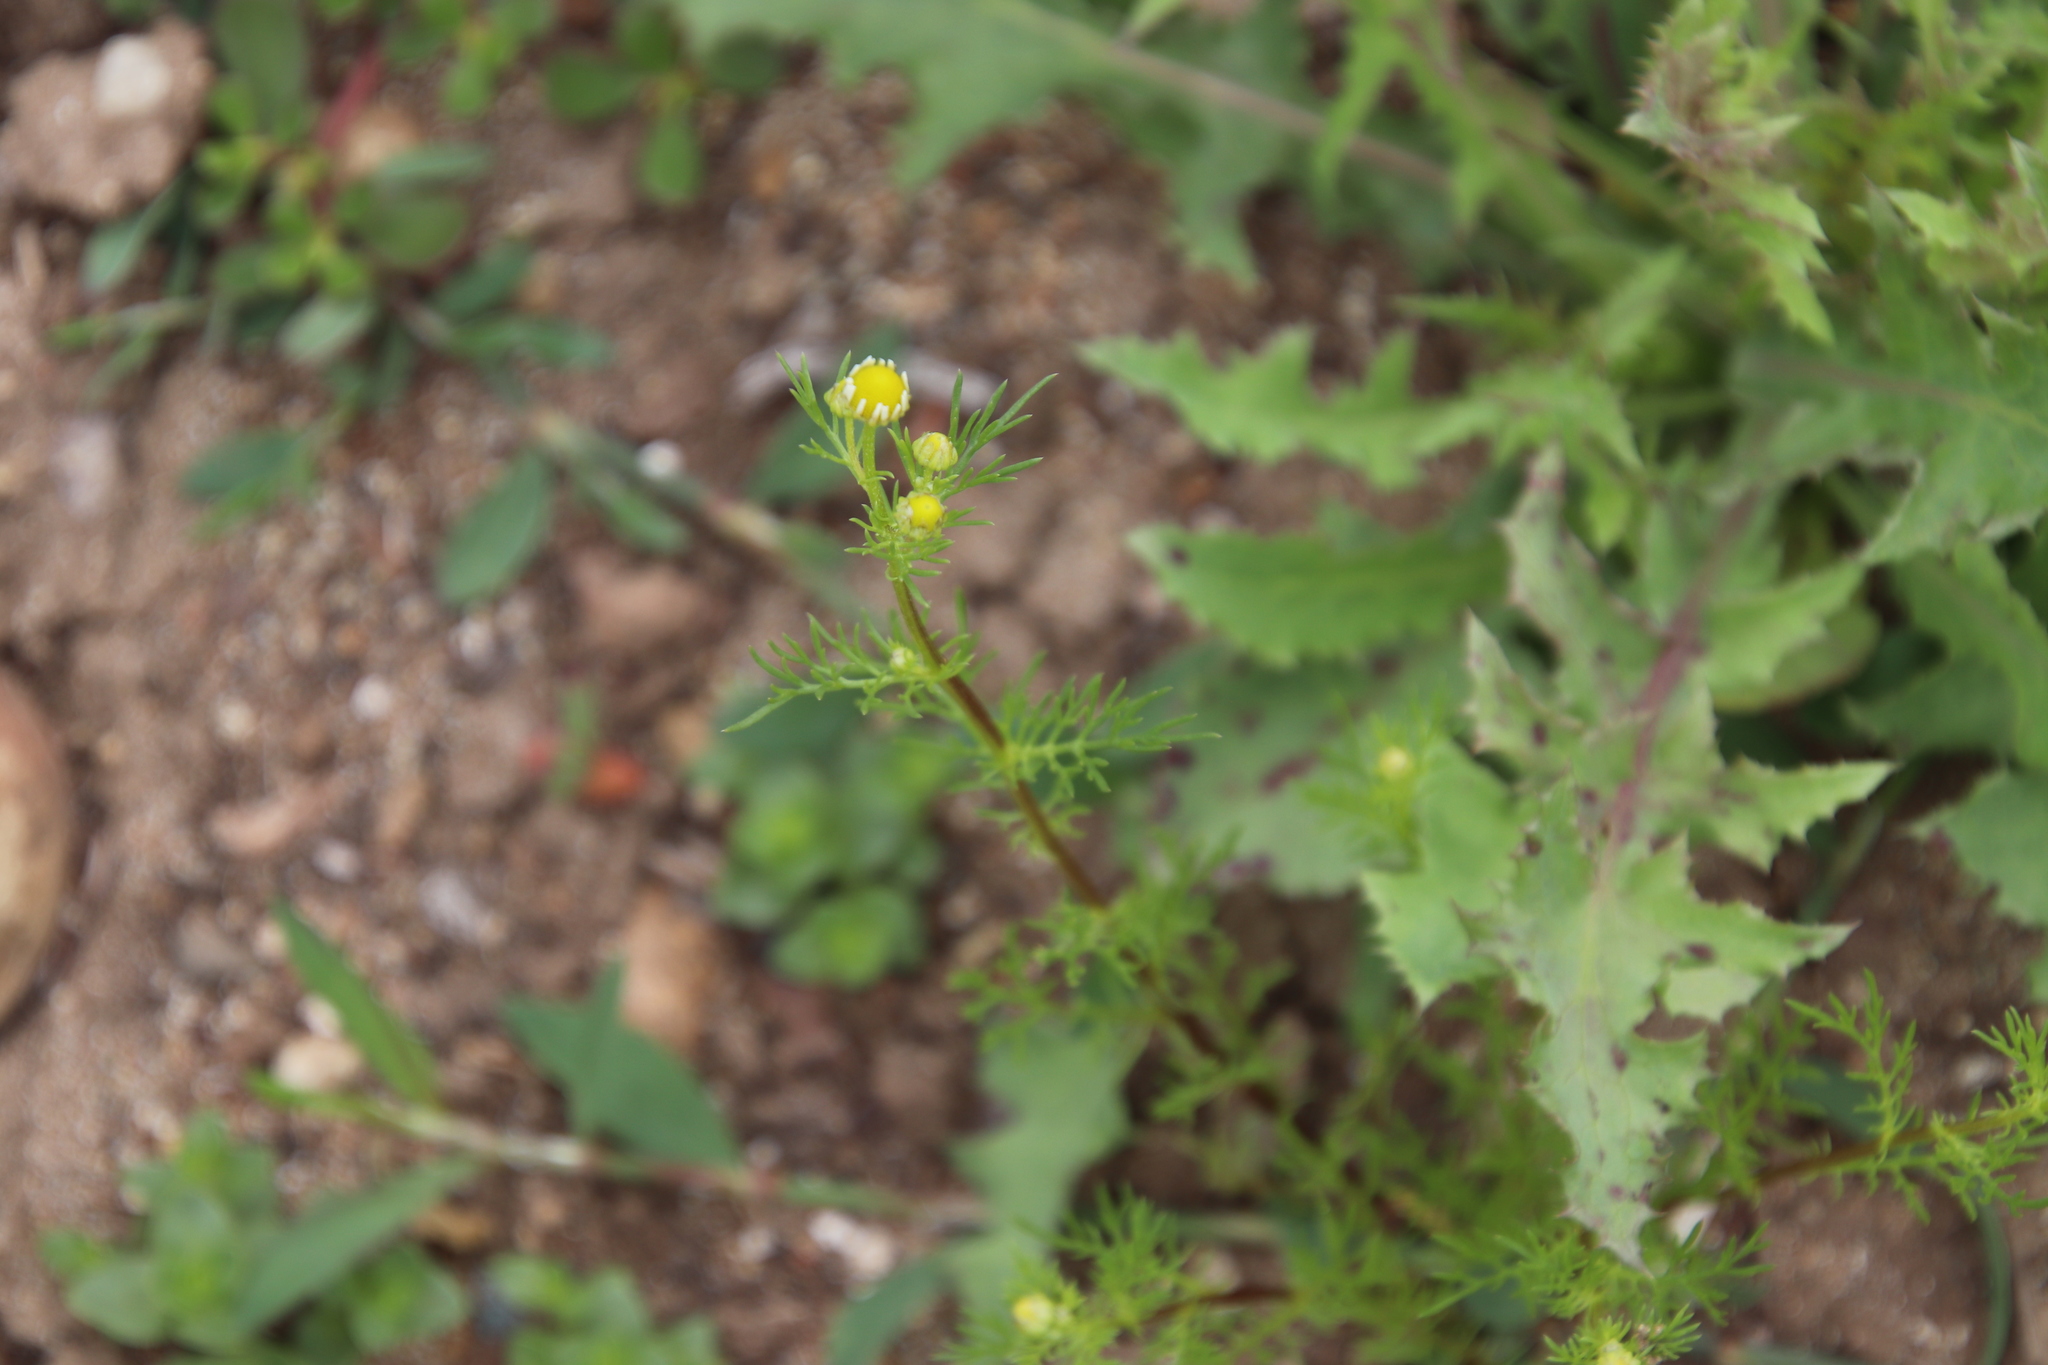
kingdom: Plantae
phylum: Tracheophyta
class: Magnoliopsida
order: Asterales
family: Asteraceae
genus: Anthemis
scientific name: Anthemis cotula
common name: Stinking chamomile
